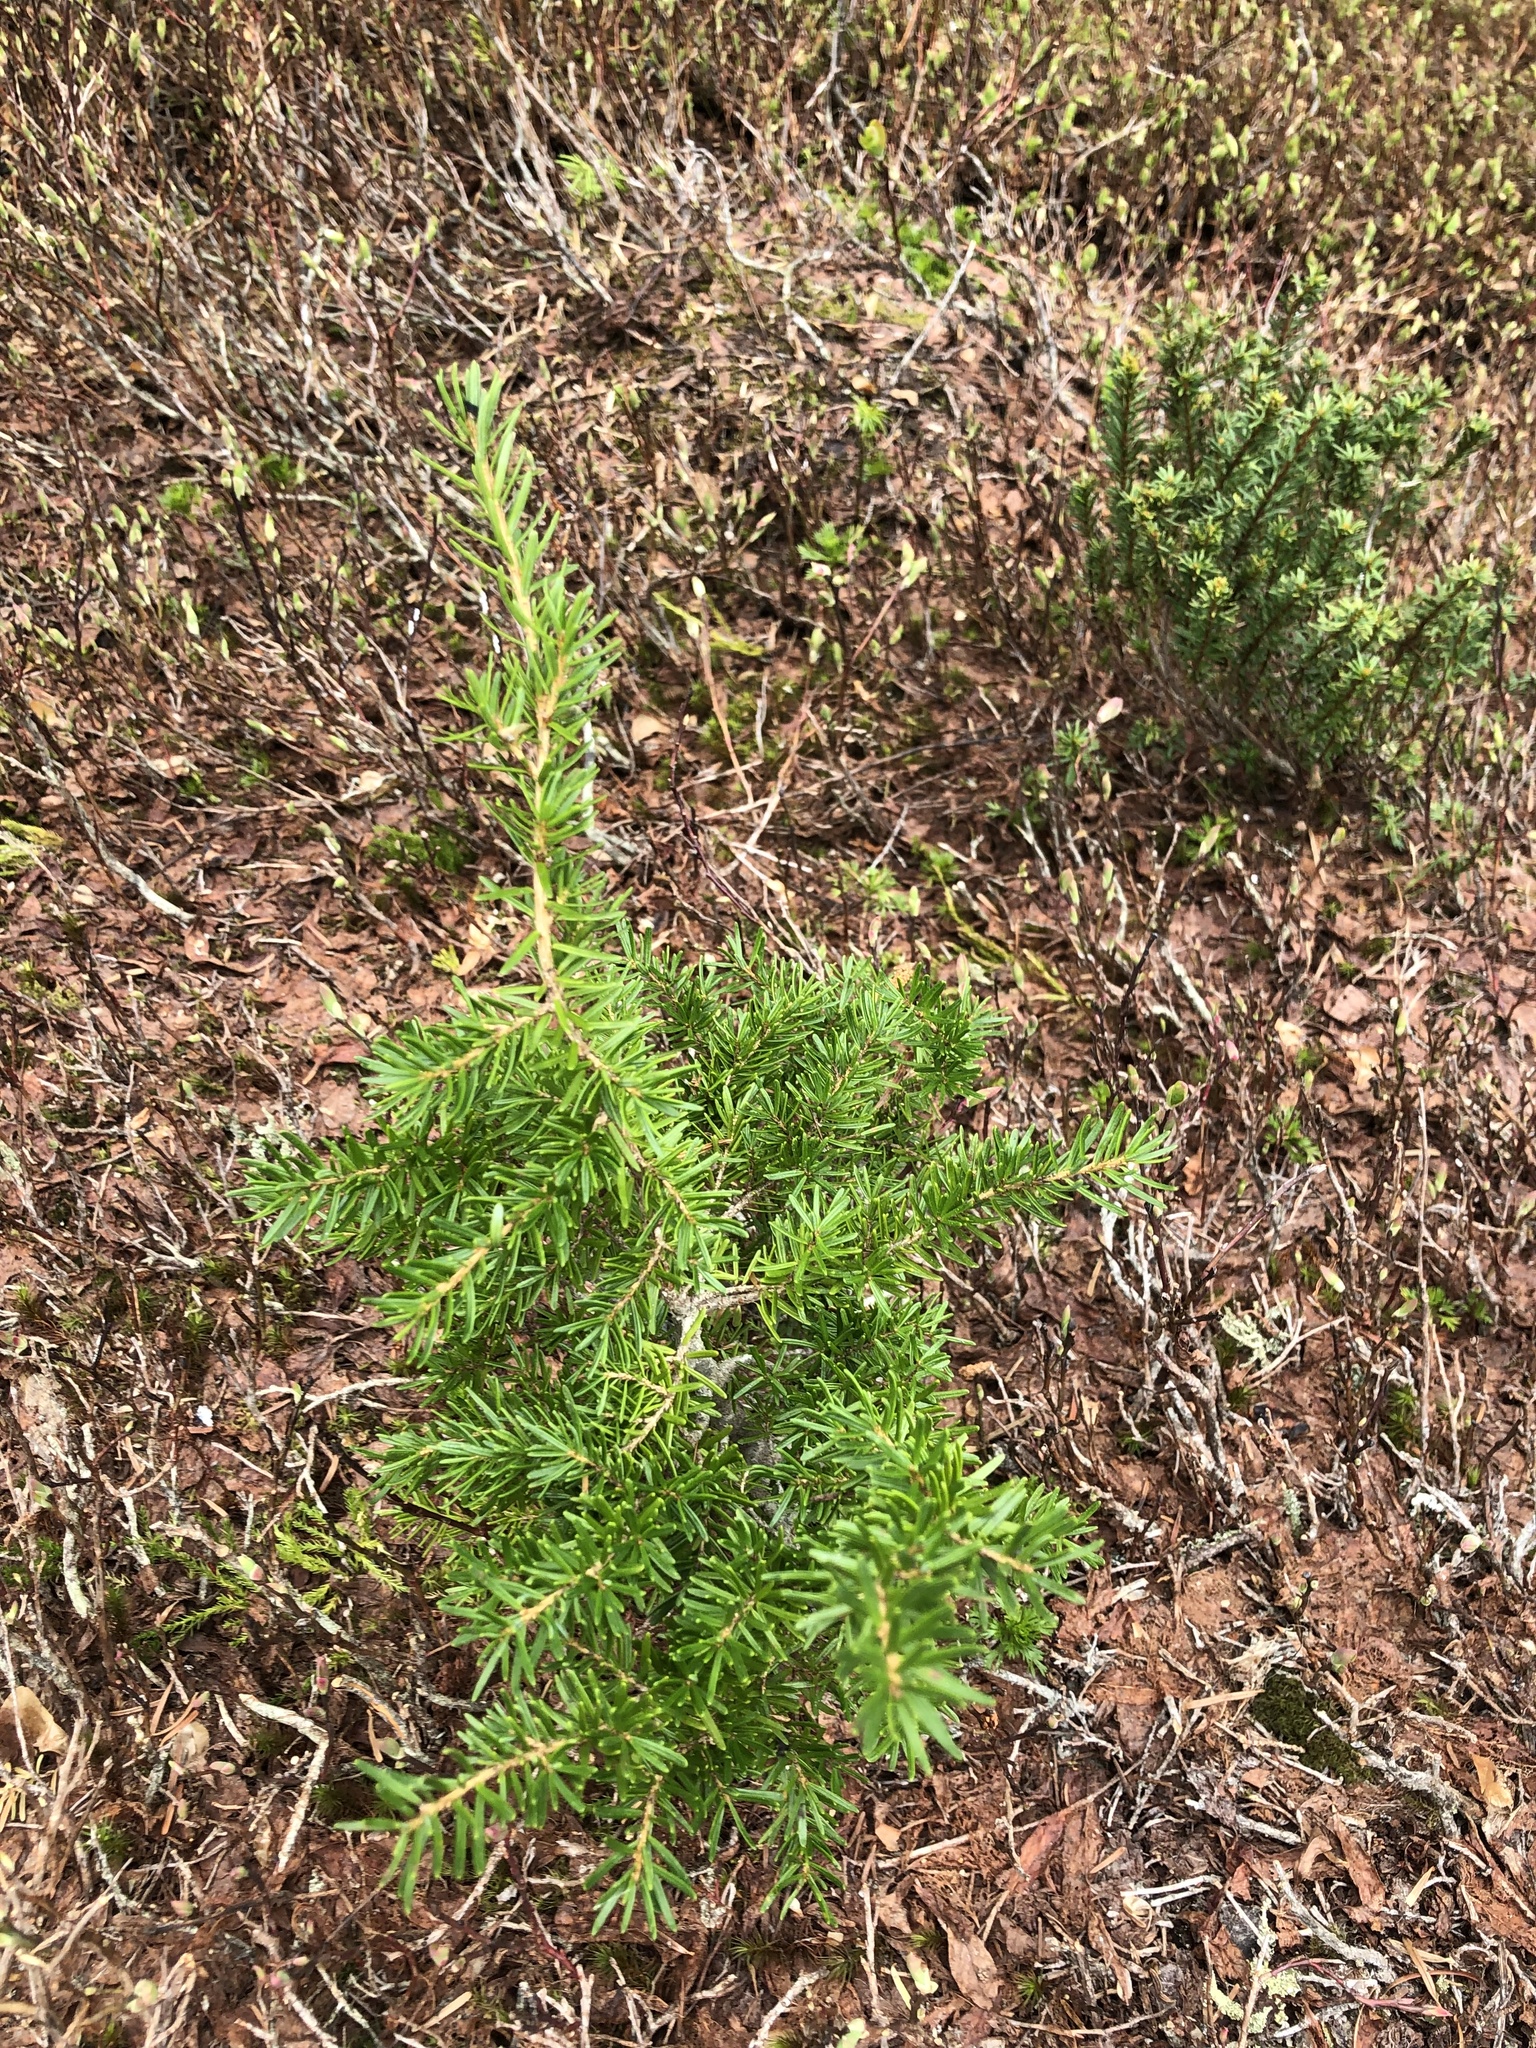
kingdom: Plantae
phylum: Tracheophyta
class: Pinopsida
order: Pinales
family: Pinaceae
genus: Tsuga
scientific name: Tsuga mertensiana
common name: Mountain hemlock
